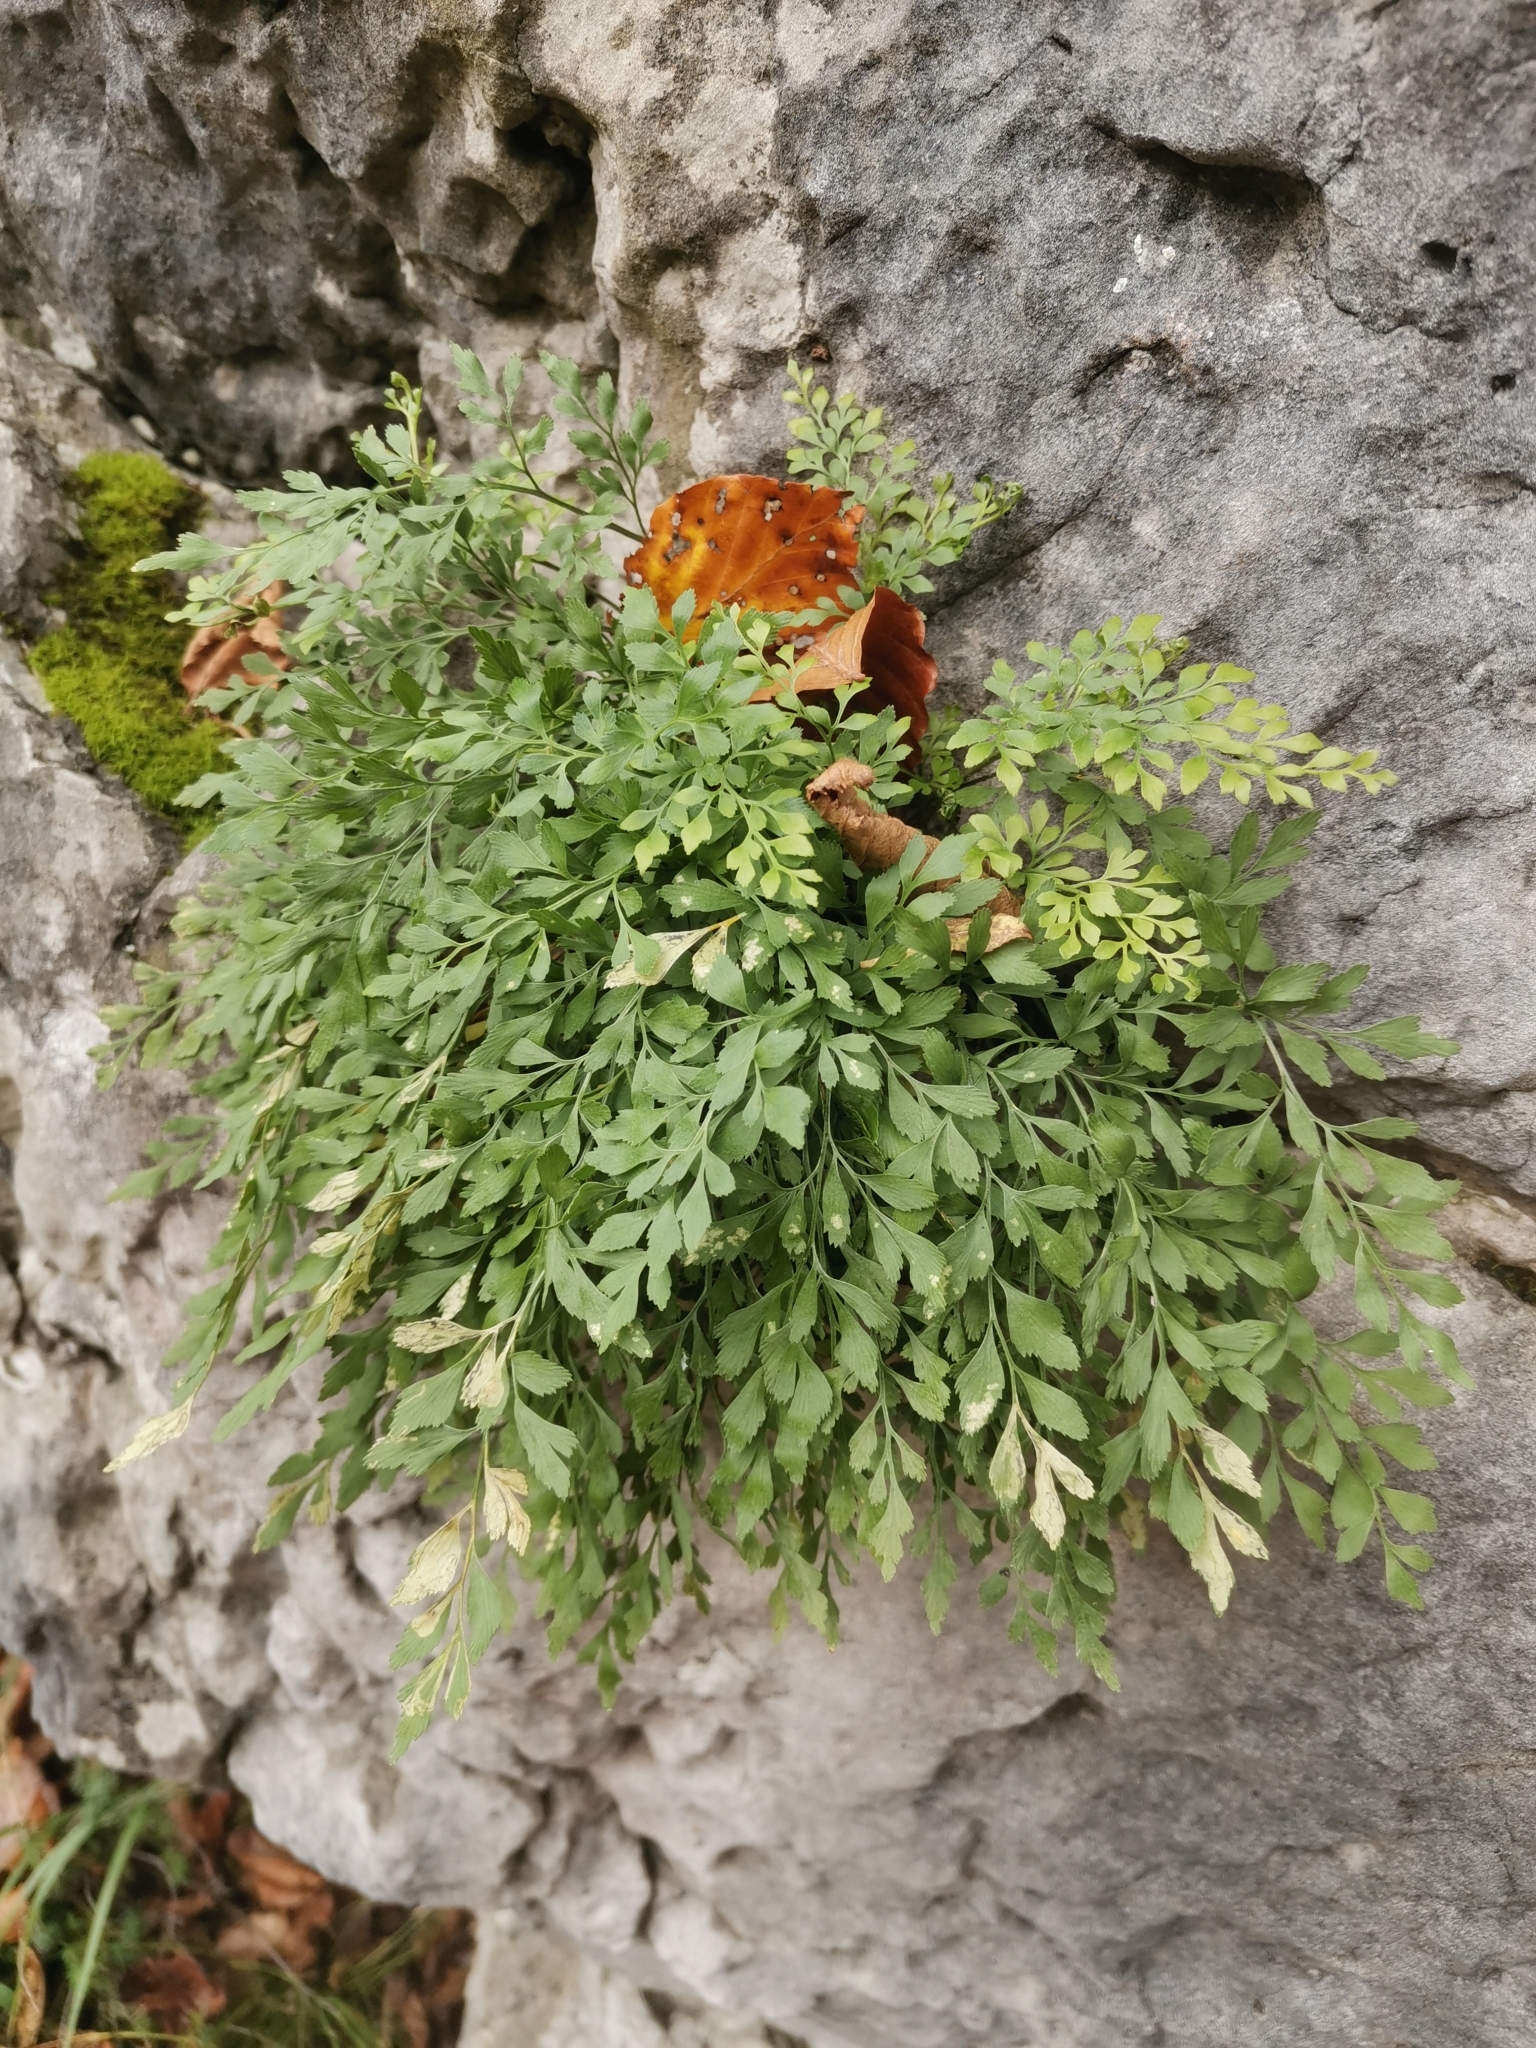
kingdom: Plantae
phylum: Tracheophyta
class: Polypodiopsida
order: Polypodiales
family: Aspleniaceae
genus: Asplenium
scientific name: Asplenium ruta-muraria
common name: Wall-rue
